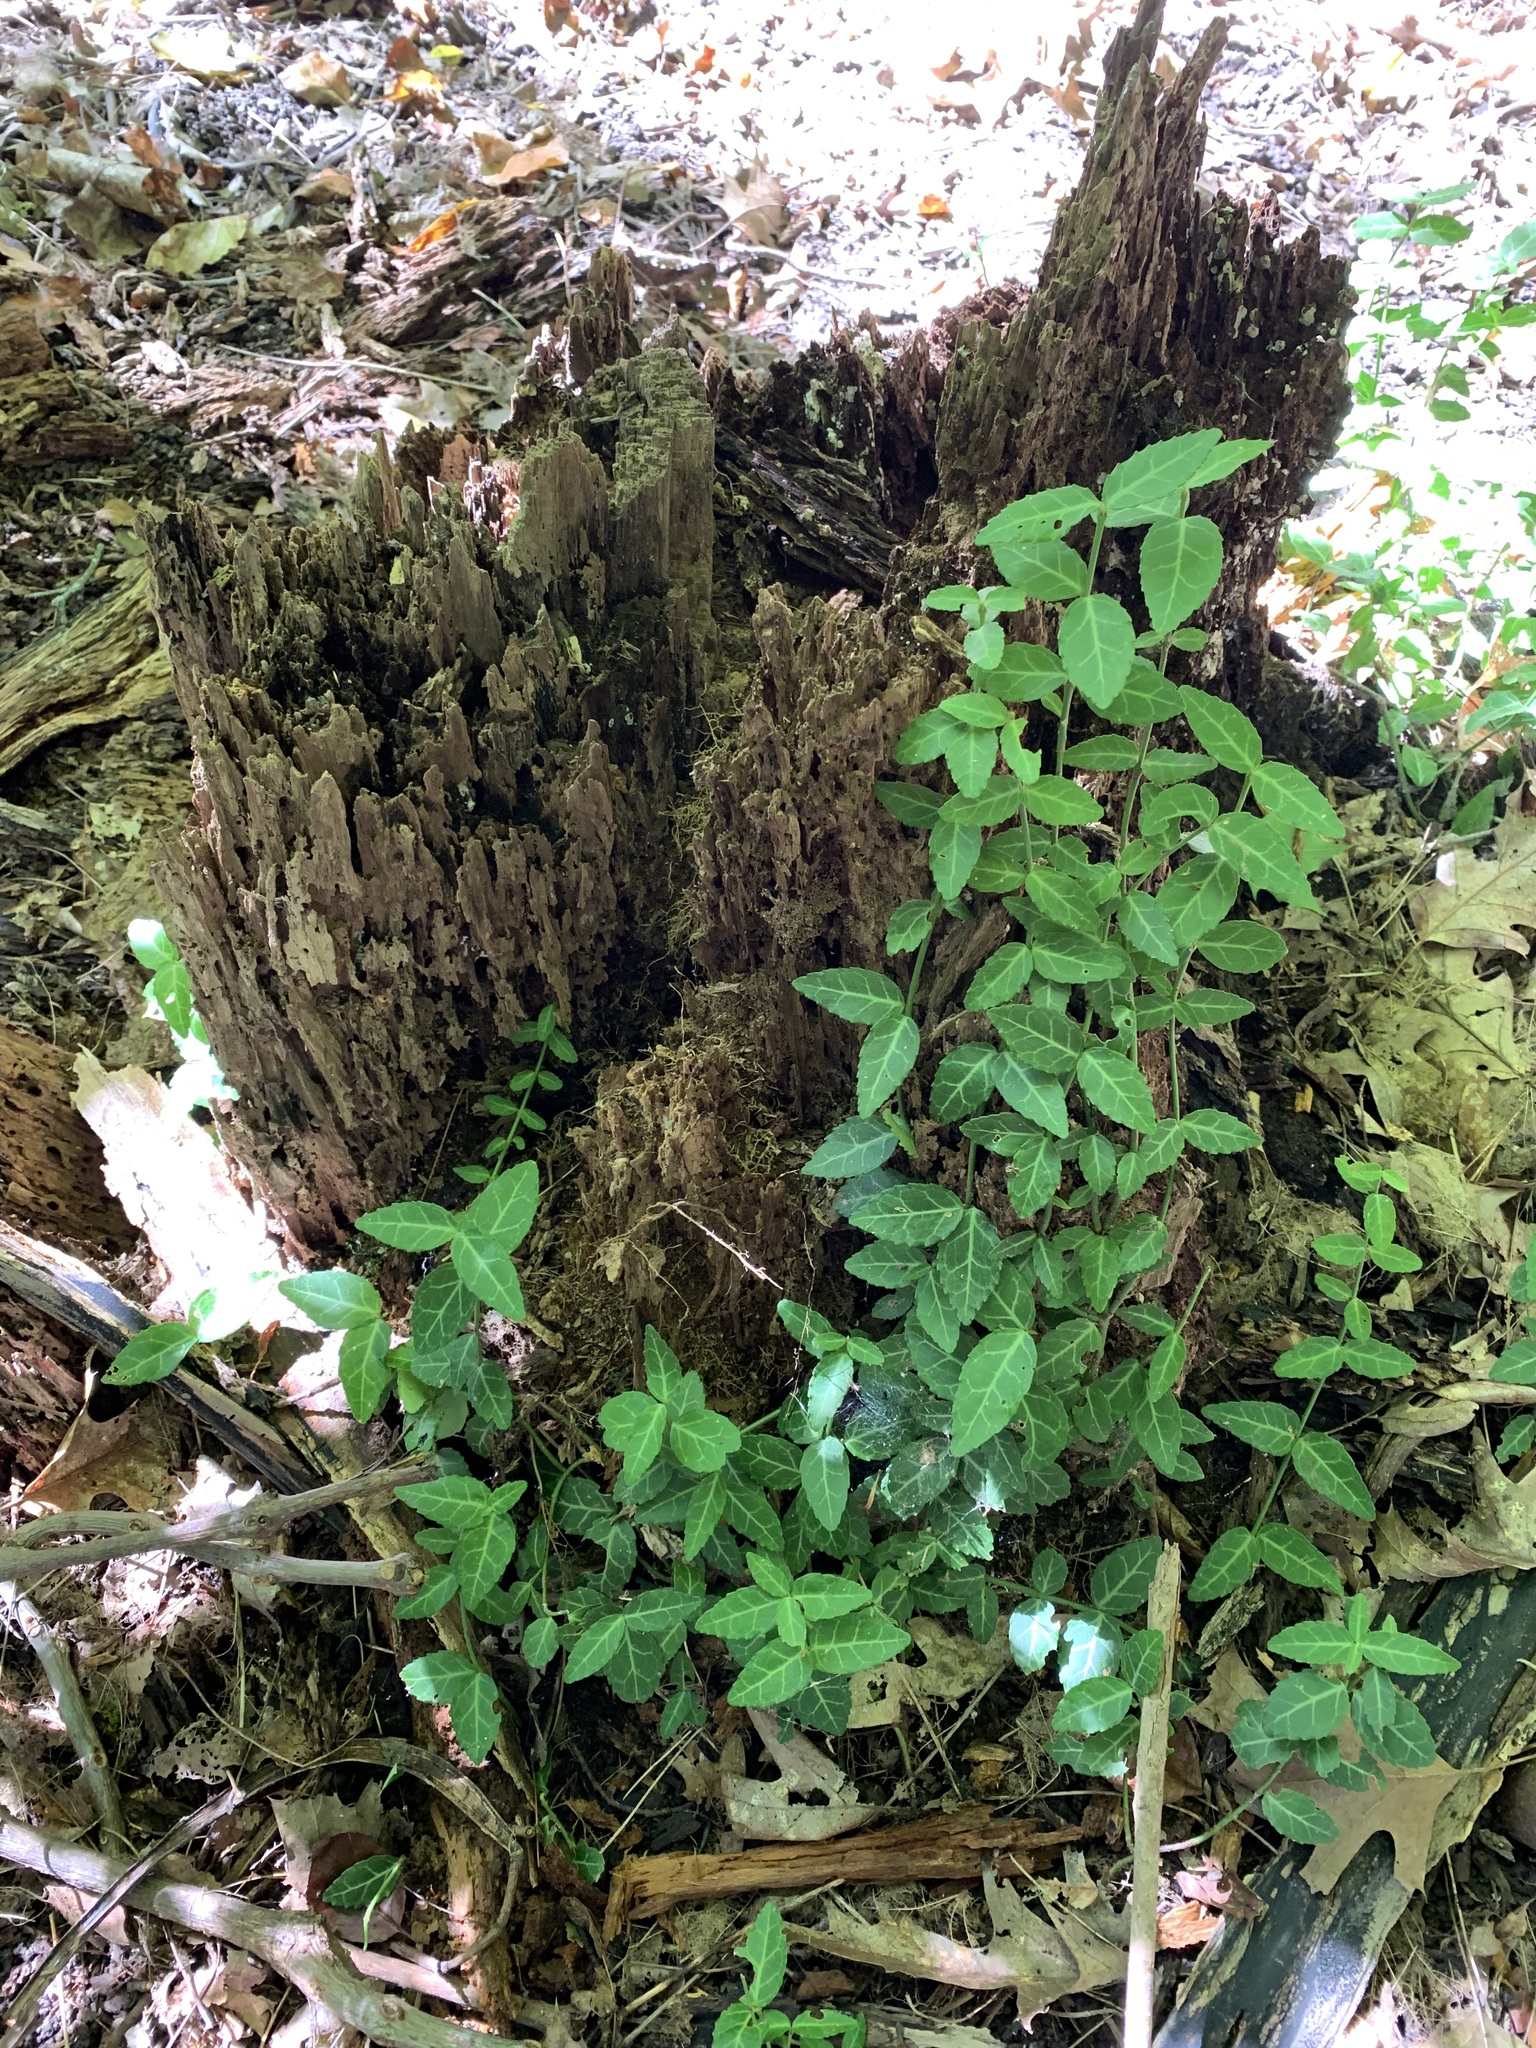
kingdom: Plantae
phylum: Tracheophyta
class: Magnoliopsida
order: Celastrales
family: Celastraceae
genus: Euonymus
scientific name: Euonymus fortunei
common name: Climbing euonymus
